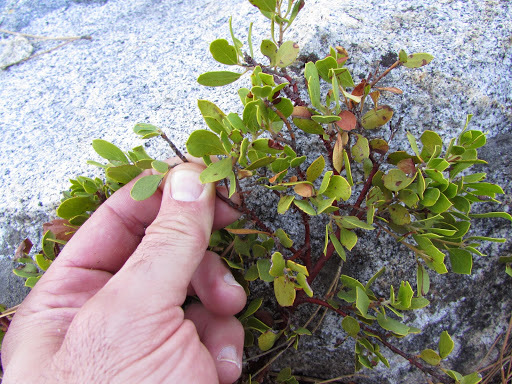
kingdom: Plantae
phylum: Tracheophyta
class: Magnoliopsida
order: Ericales
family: Ericaceae
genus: Arctostaphylos
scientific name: Arctostaphylos nevadensis
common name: Pinemat manzanita
